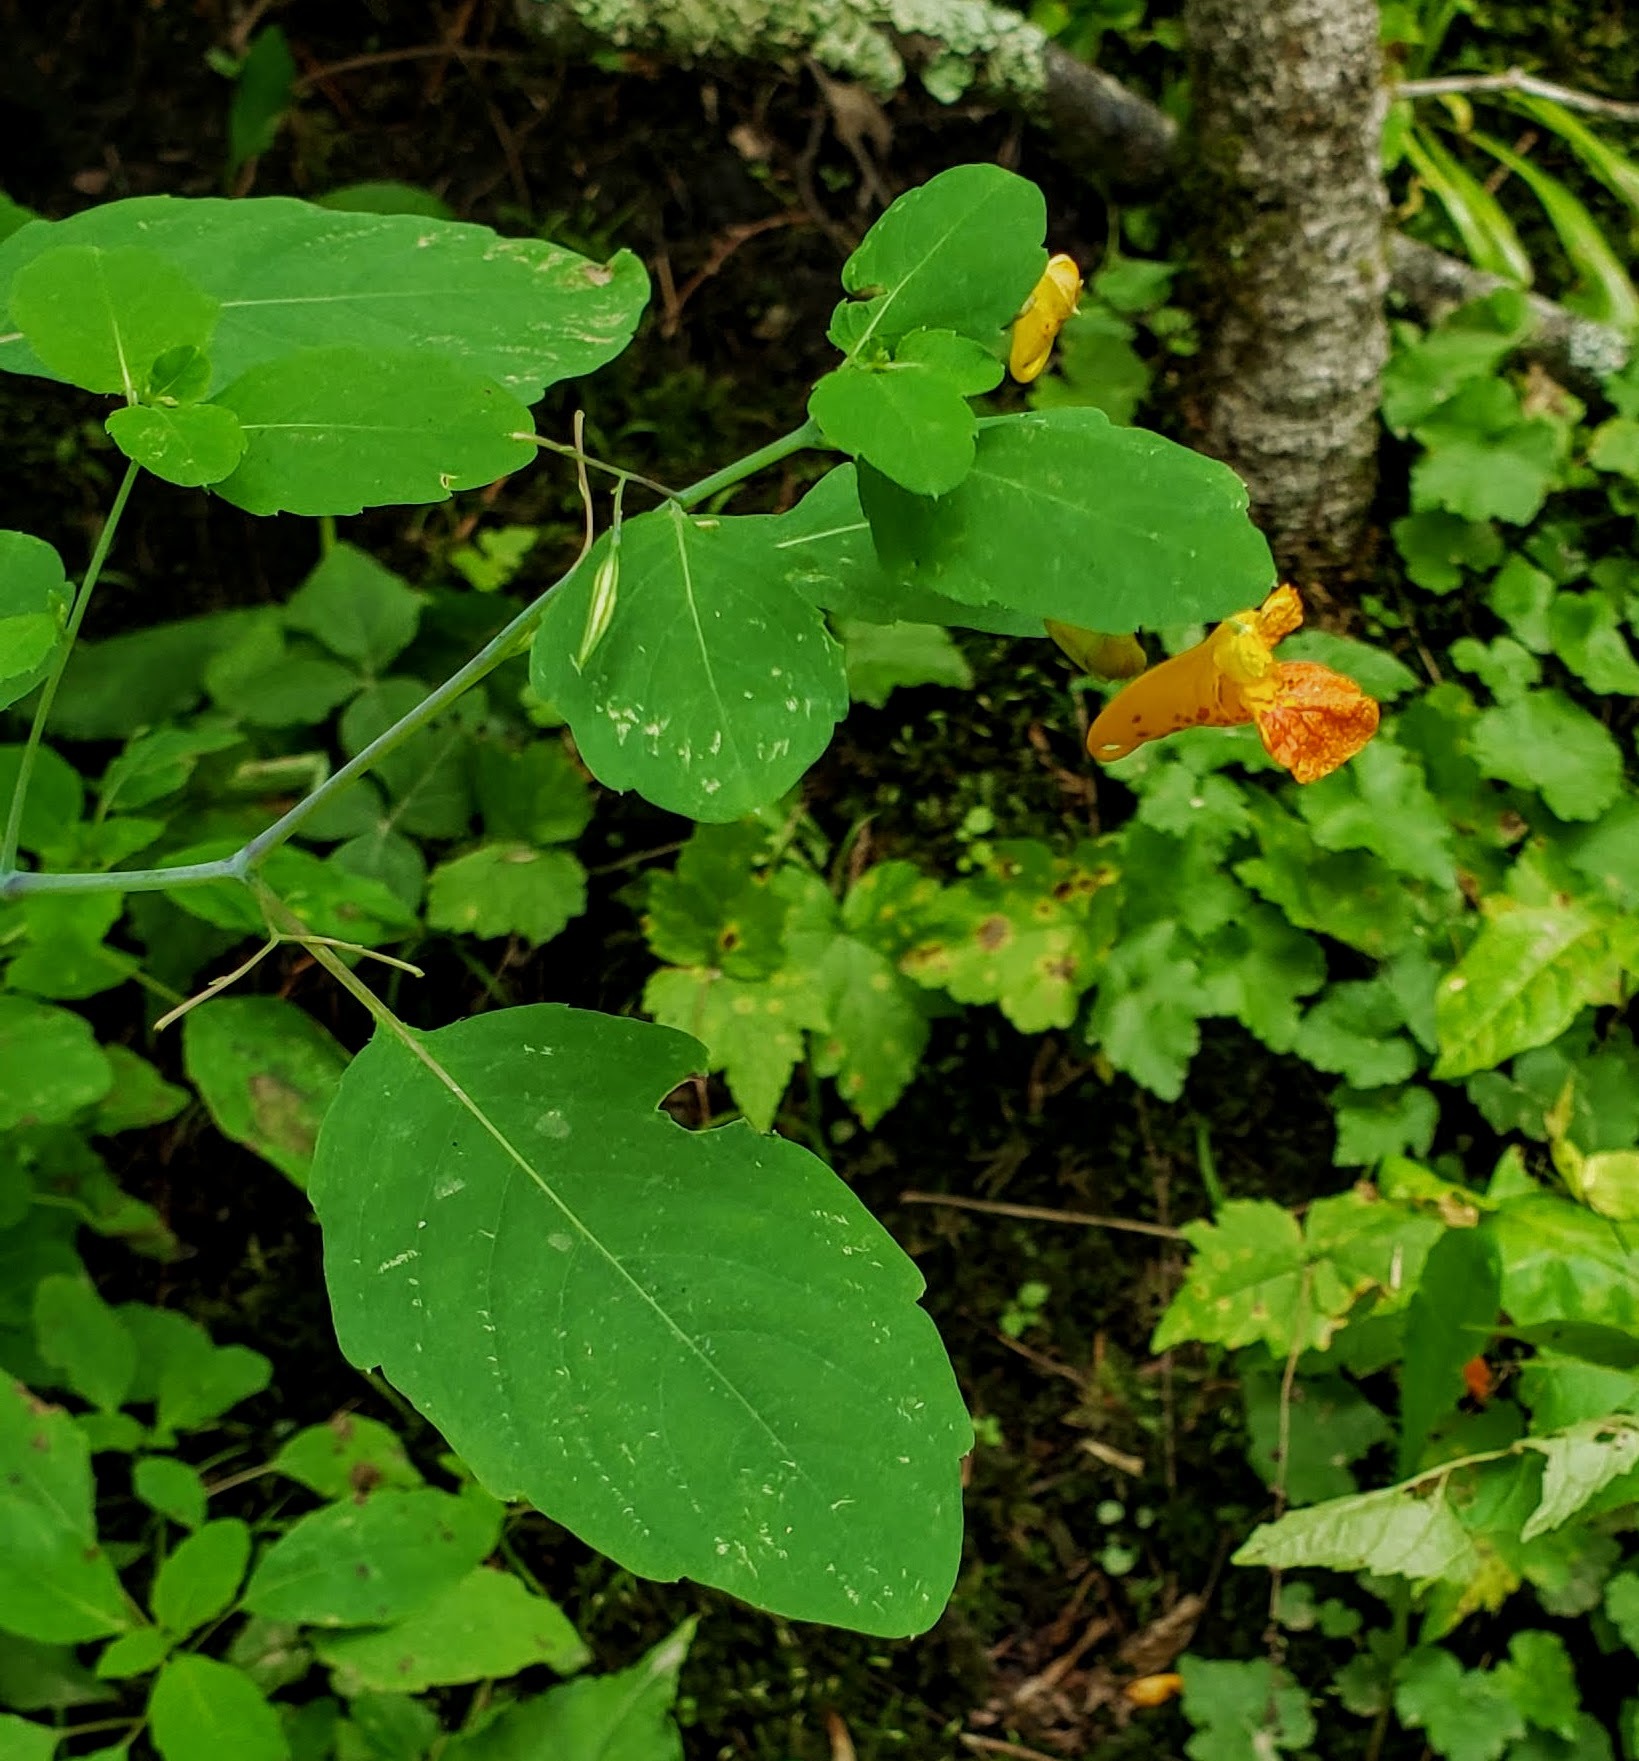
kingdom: Plantae
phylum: Tracheophyta
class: Magnoliopsida
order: Ericales
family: Balsaminaceae
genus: Impatiens
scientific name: Impatiens capensis
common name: Orange balsam
